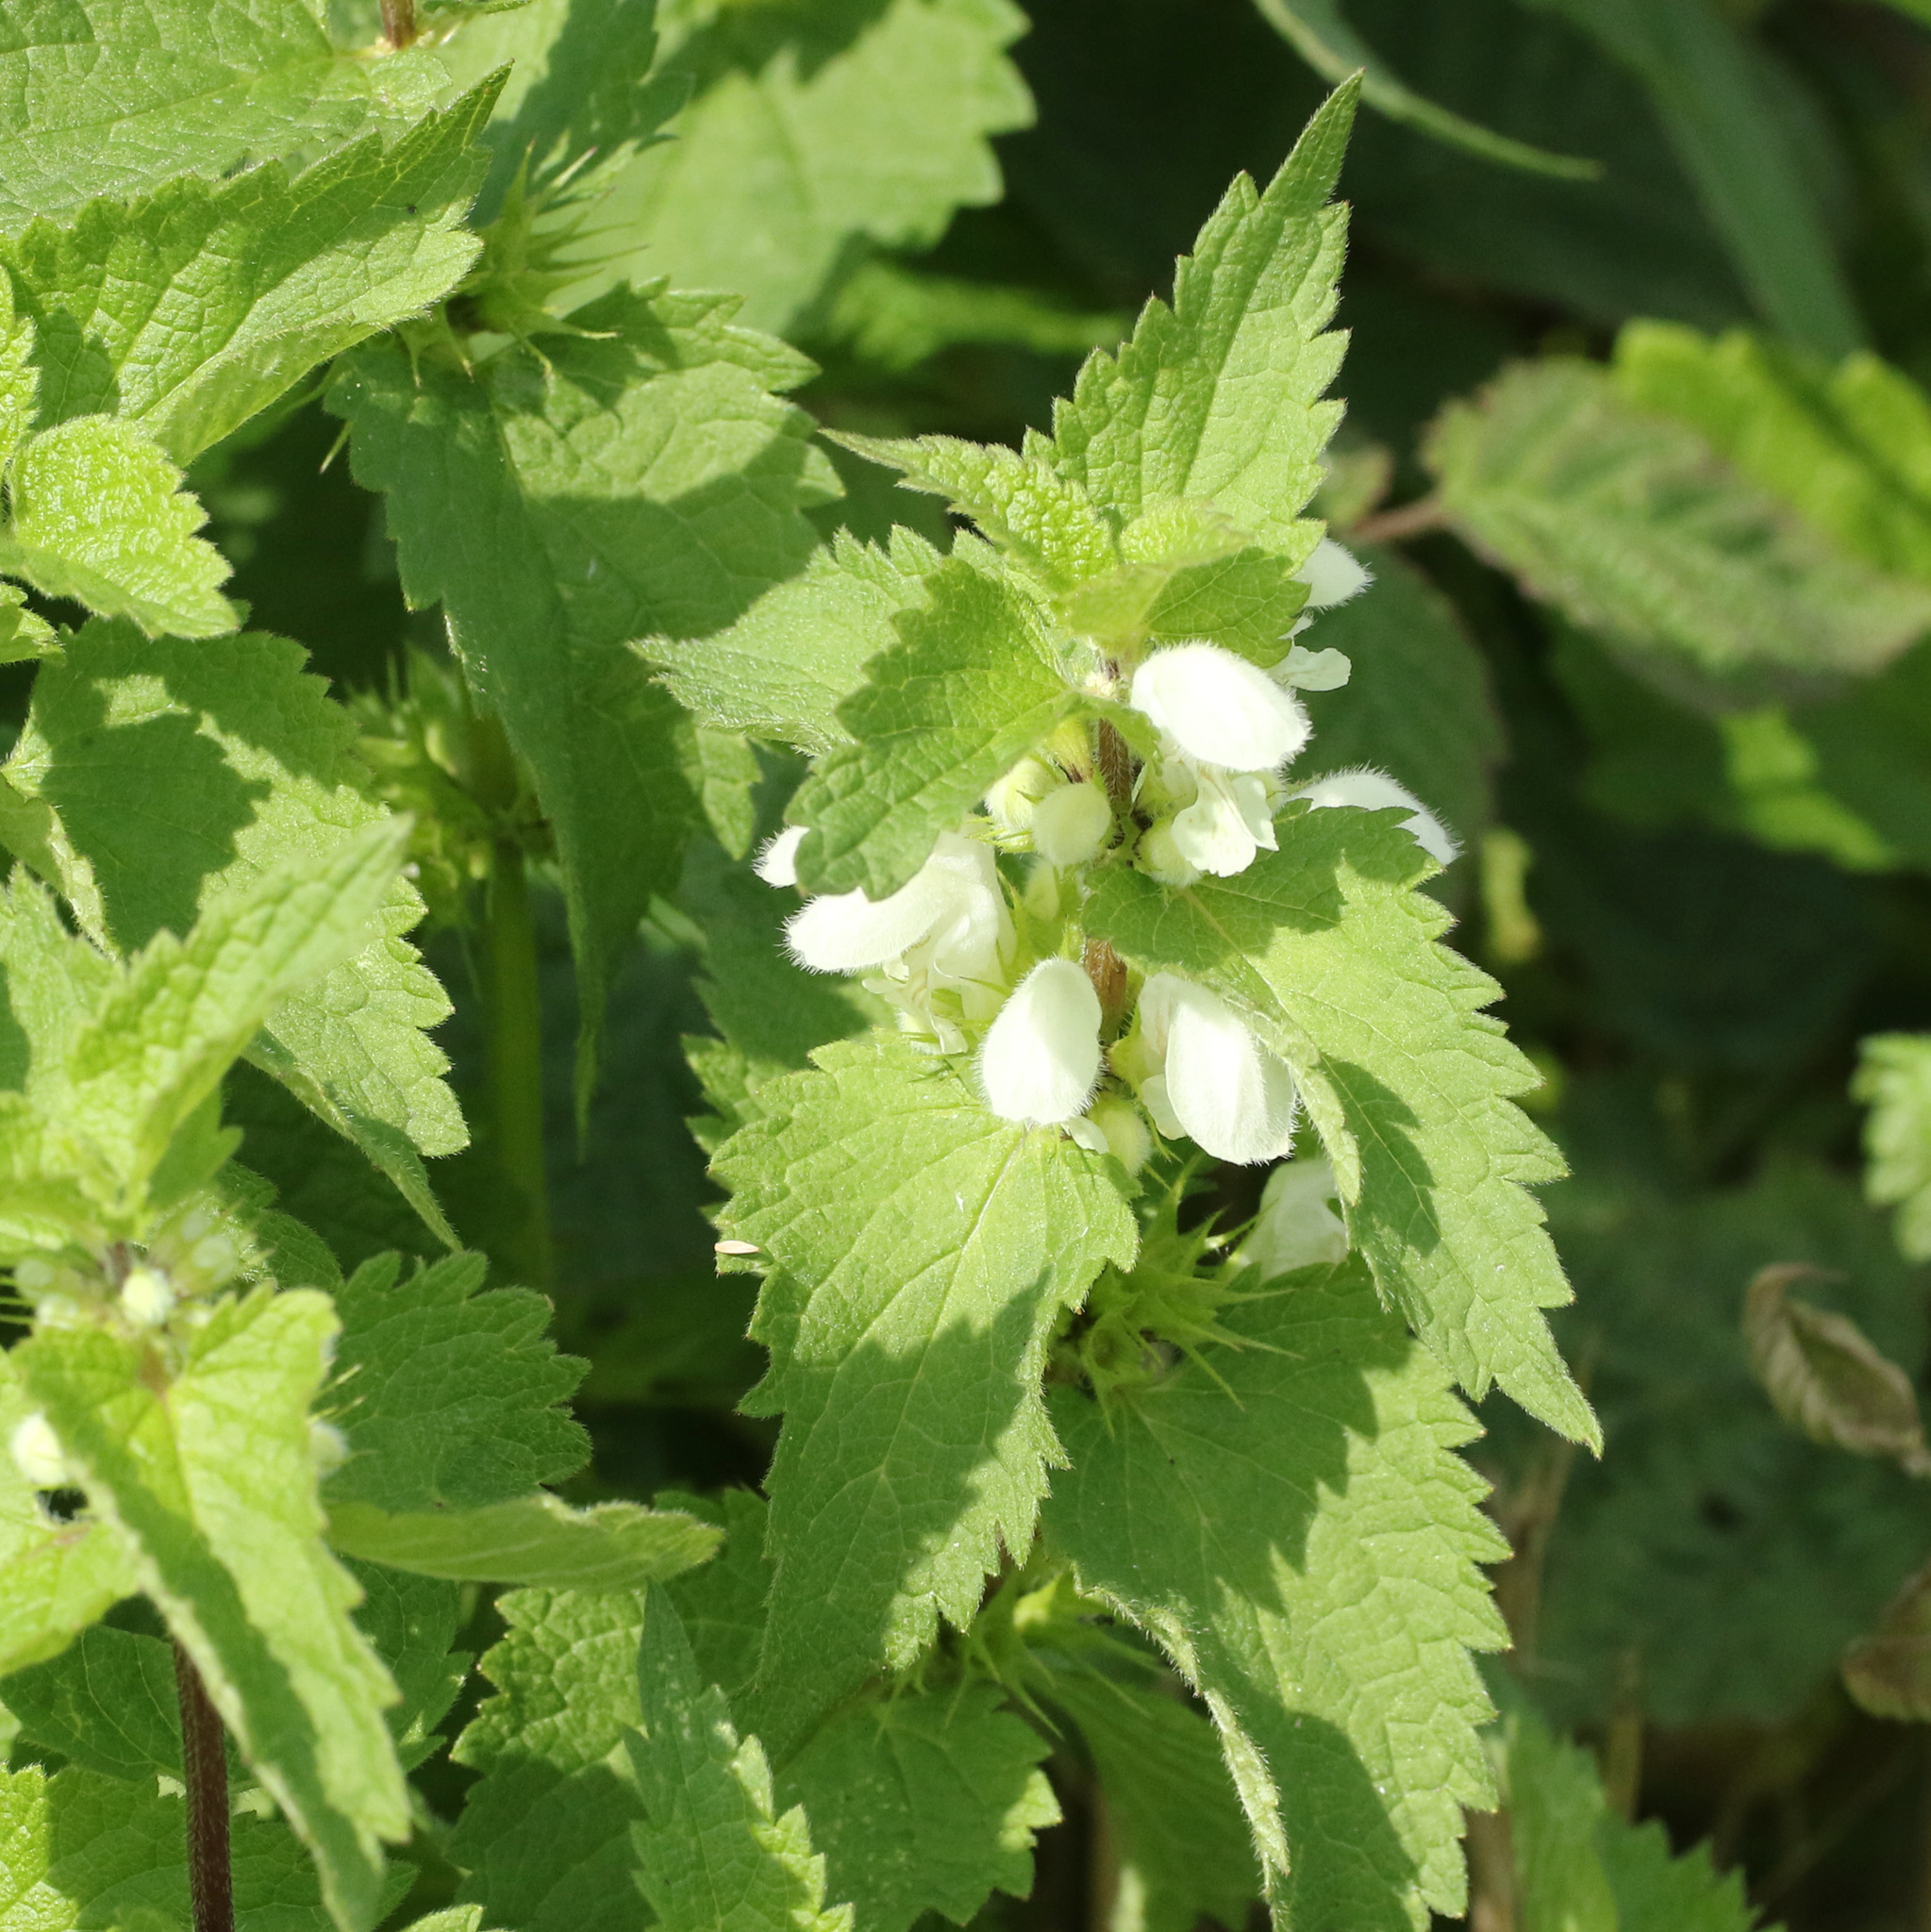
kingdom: Plantae
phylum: Tracheophyta
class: Magnoliopsida
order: Lamiales
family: Lamiaceae
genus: Lamium
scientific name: Lamium album
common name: White dead-nettle
